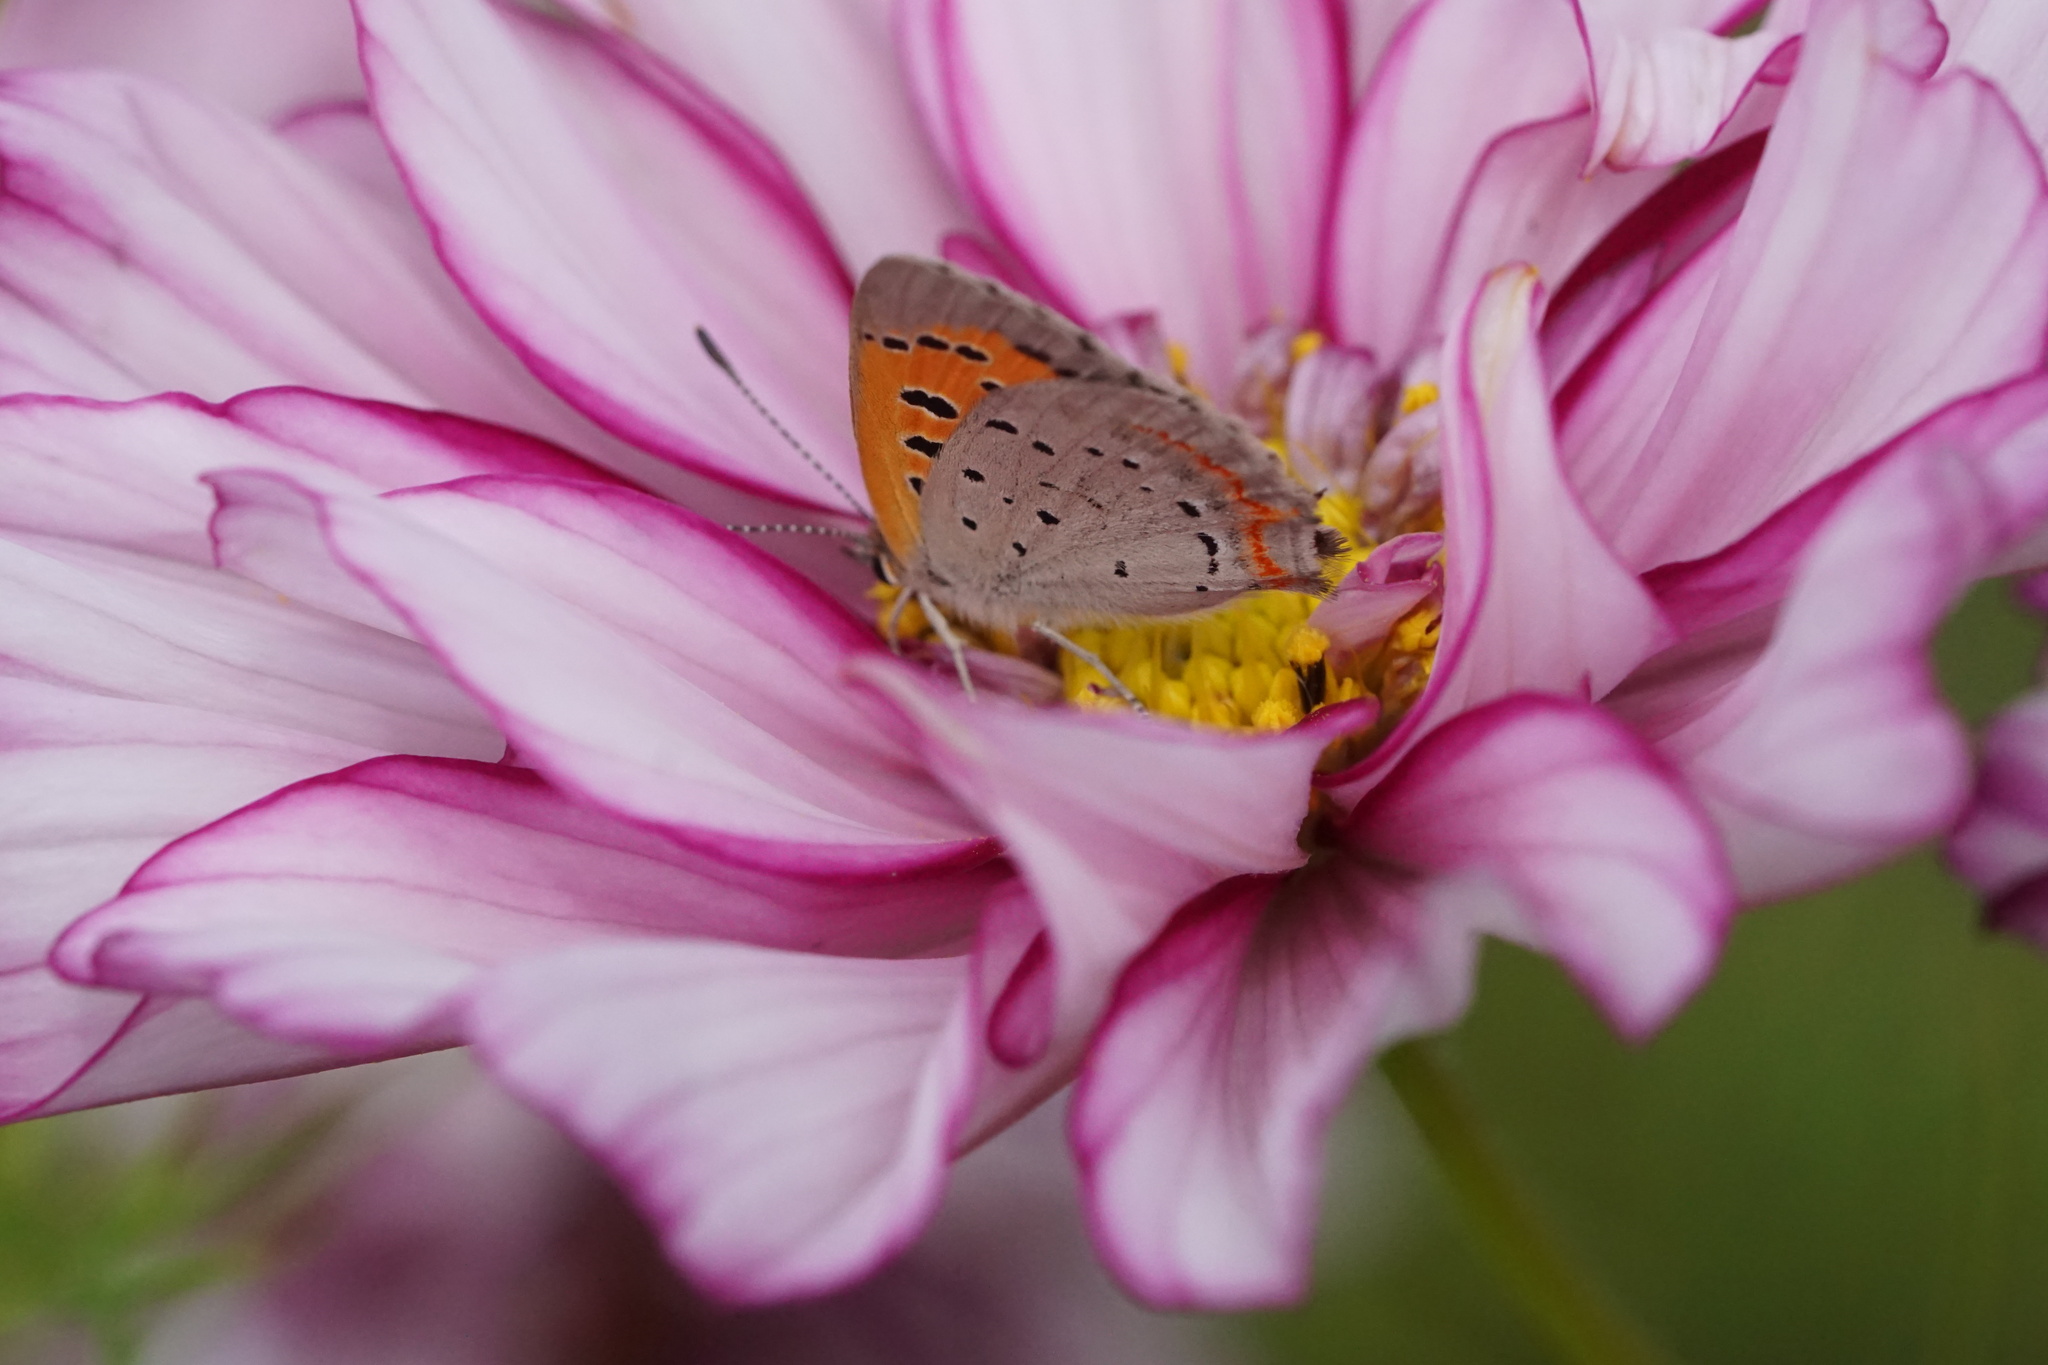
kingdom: Animalia
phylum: Arthropoda
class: Insecta
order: Lepidoptera
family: Lycaenidae
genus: Lycaena
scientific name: Lycaena hypophlaeas
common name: American copper
